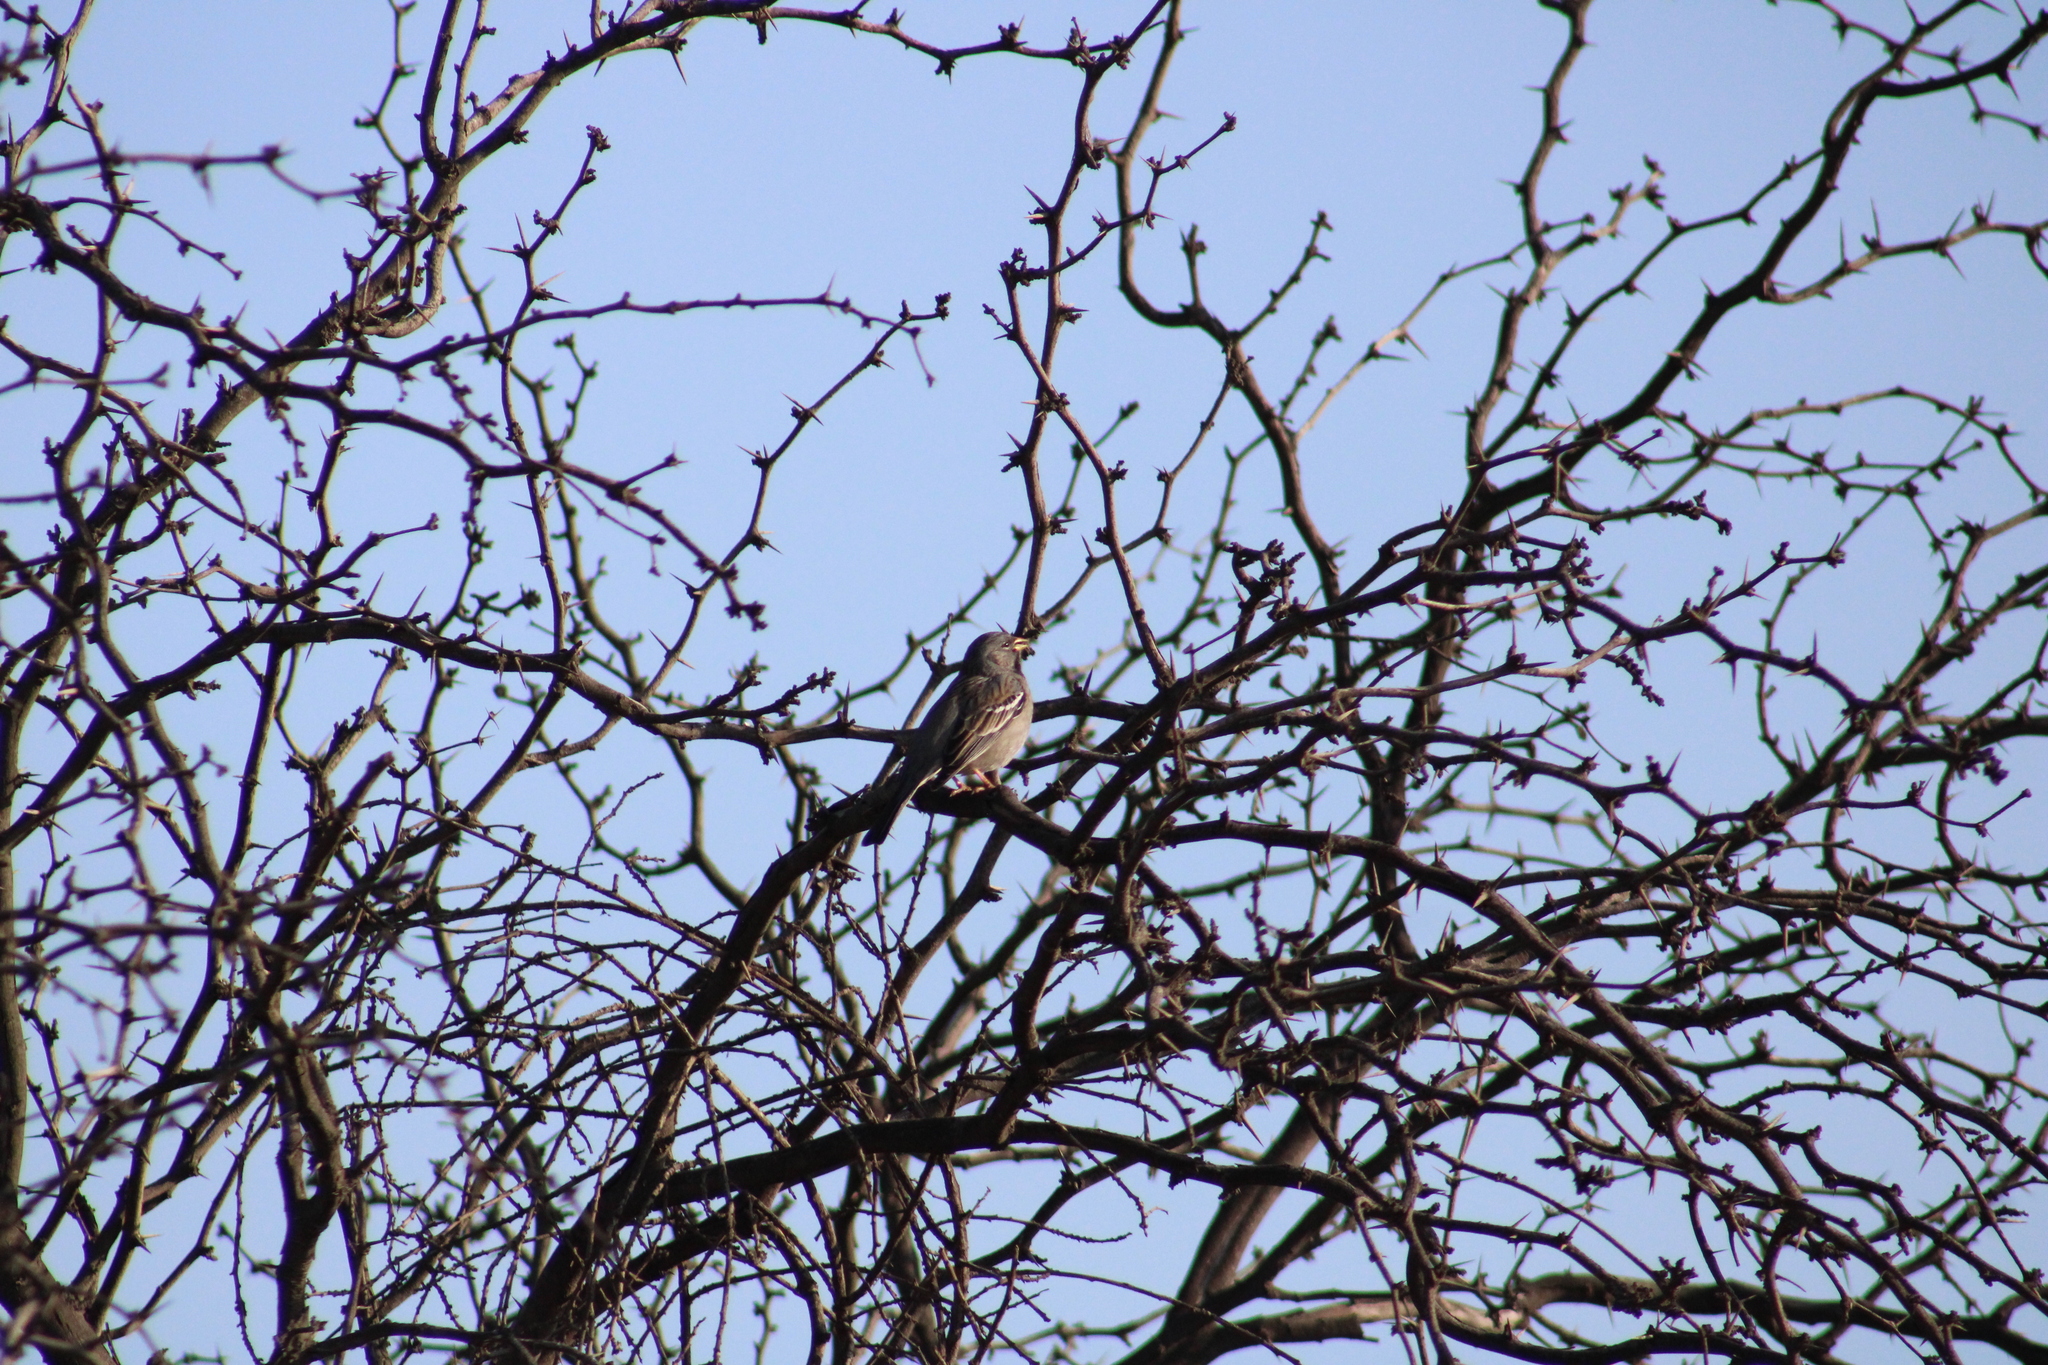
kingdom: Animalia
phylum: Chordata
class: Aves
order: Passeriformes
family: Thraupidae
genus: Rhopospina
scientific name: Rhopospina fruticeti
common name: Mourning sierra finch
